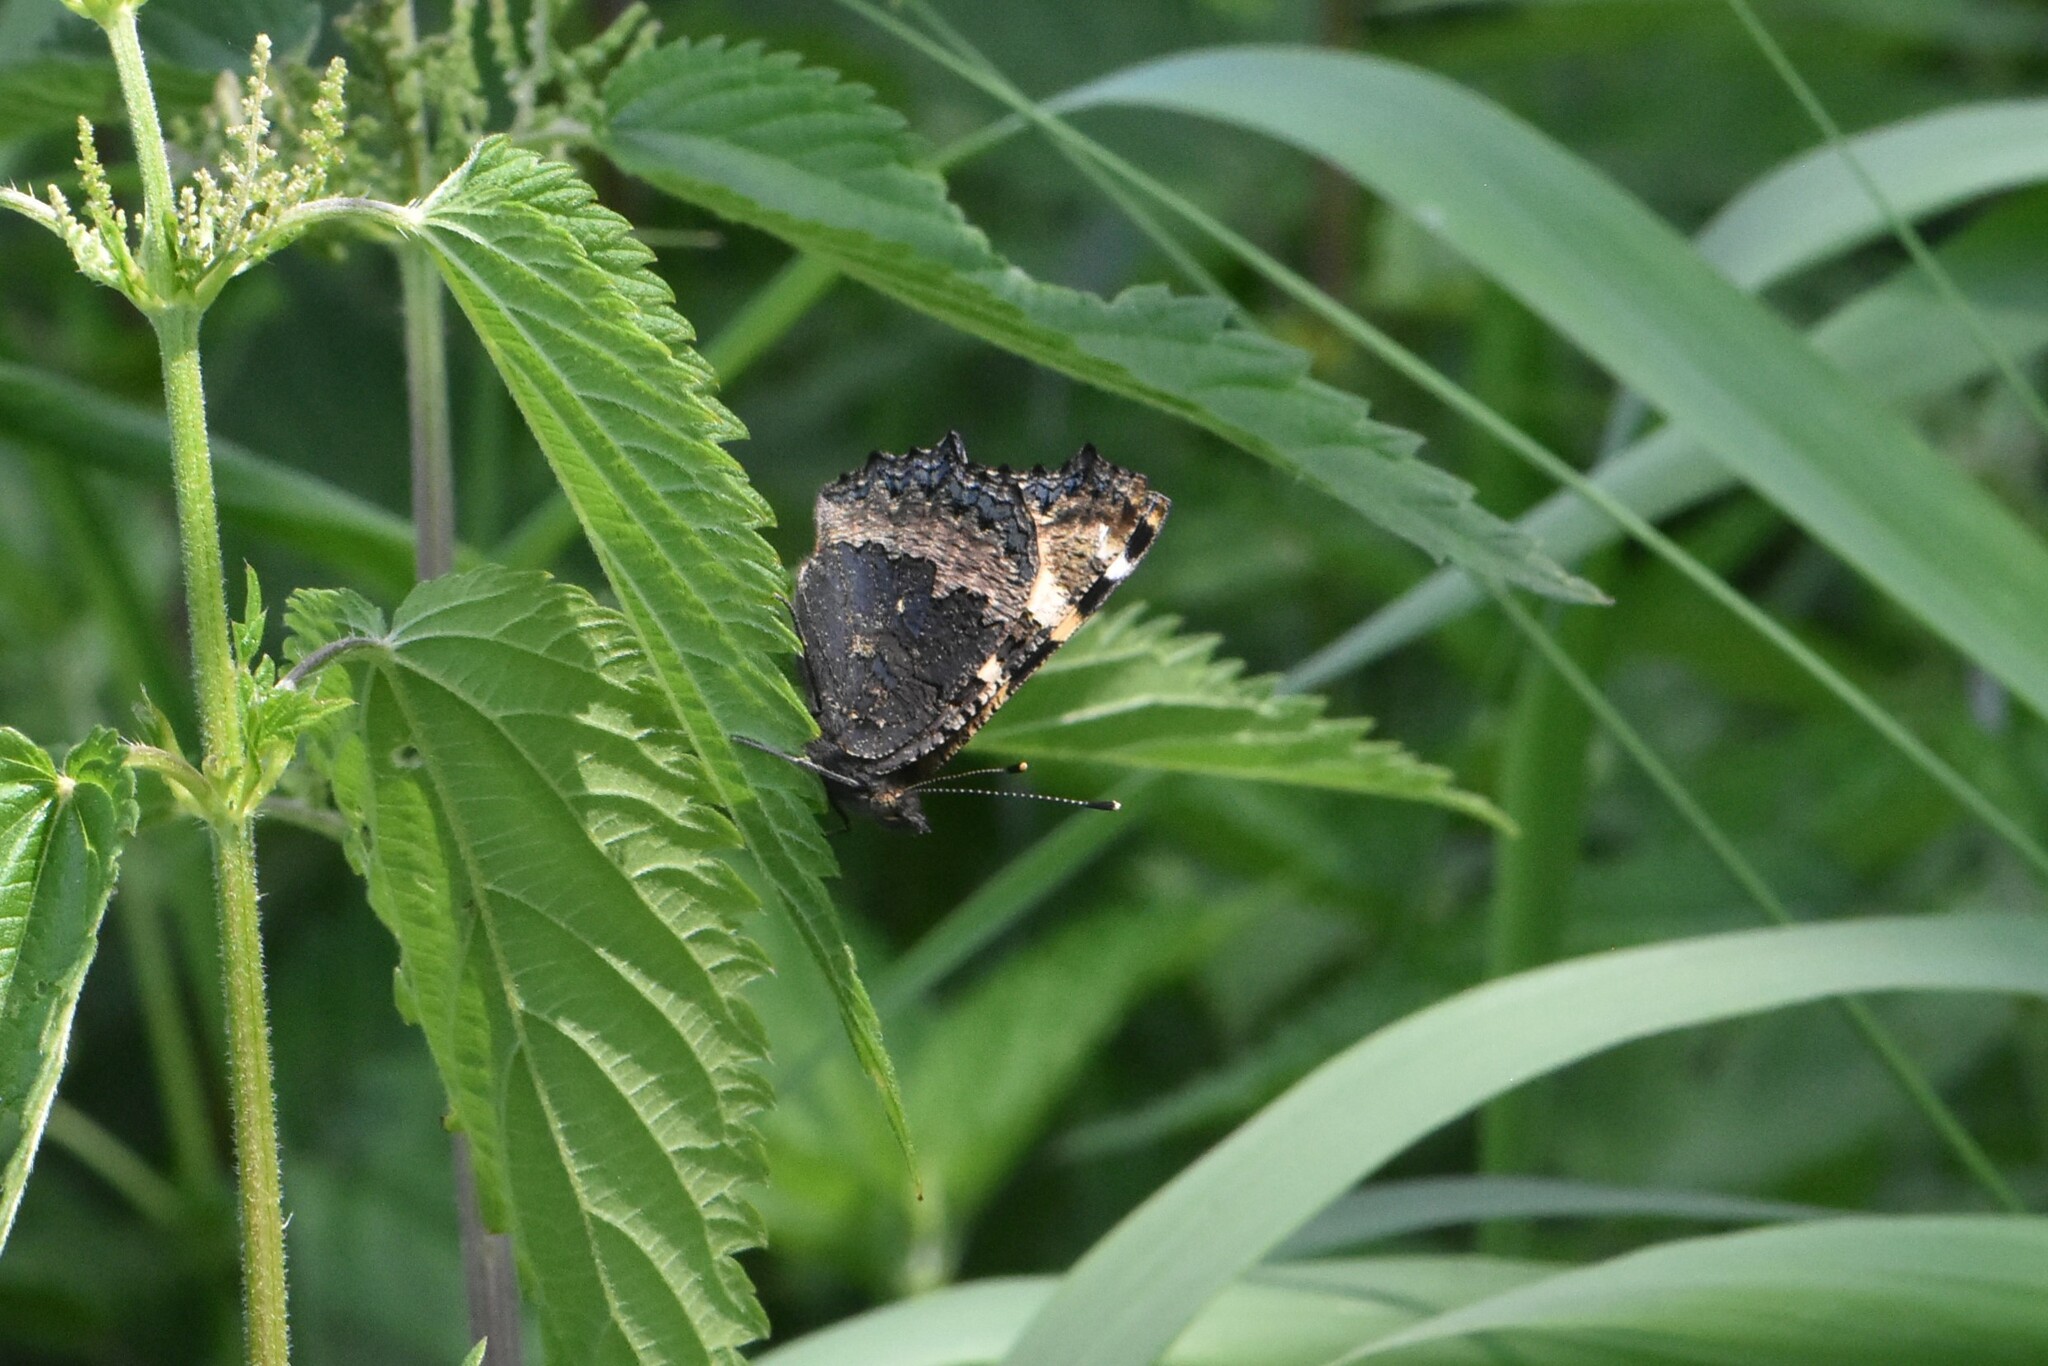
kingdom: Animalia
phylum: Arthropoda
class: Insecta
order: Lepidoptera
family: Nymphalidae
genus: Aglais
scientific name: Aglais urticae
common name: Small tortoiseshell
